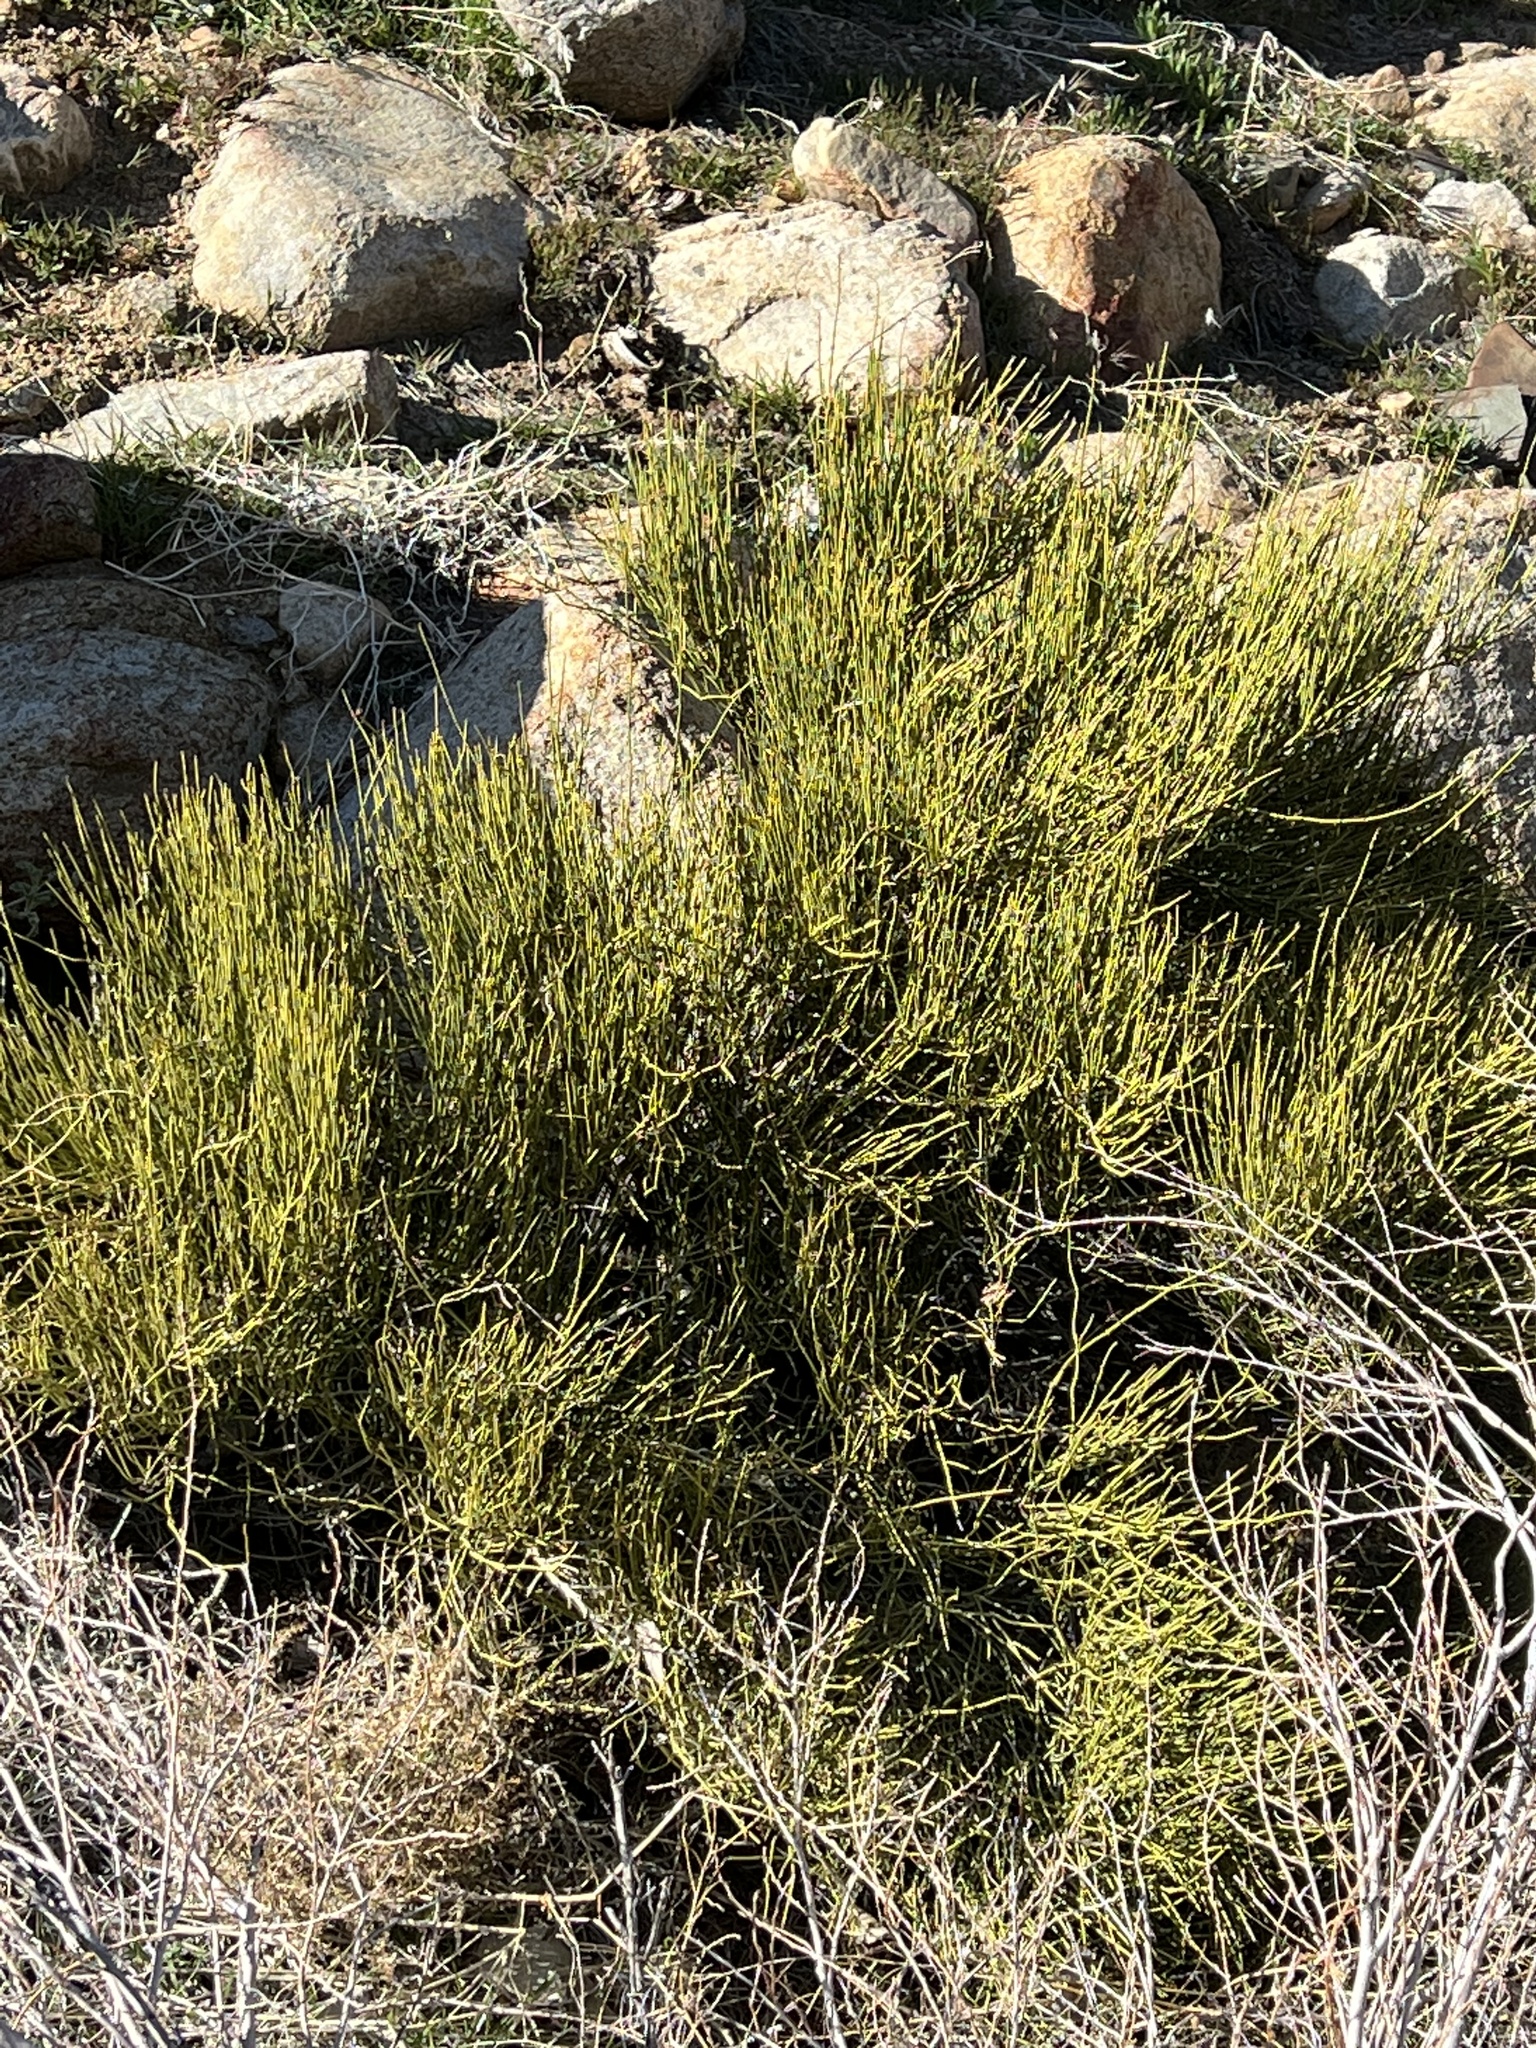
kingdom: Plantae
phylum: Tracheophyta
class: Gnetopsida
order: Ephedrales
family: Ephedraceae
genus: Ephedra
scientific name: Ephedra viridis
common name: Green ephedra
